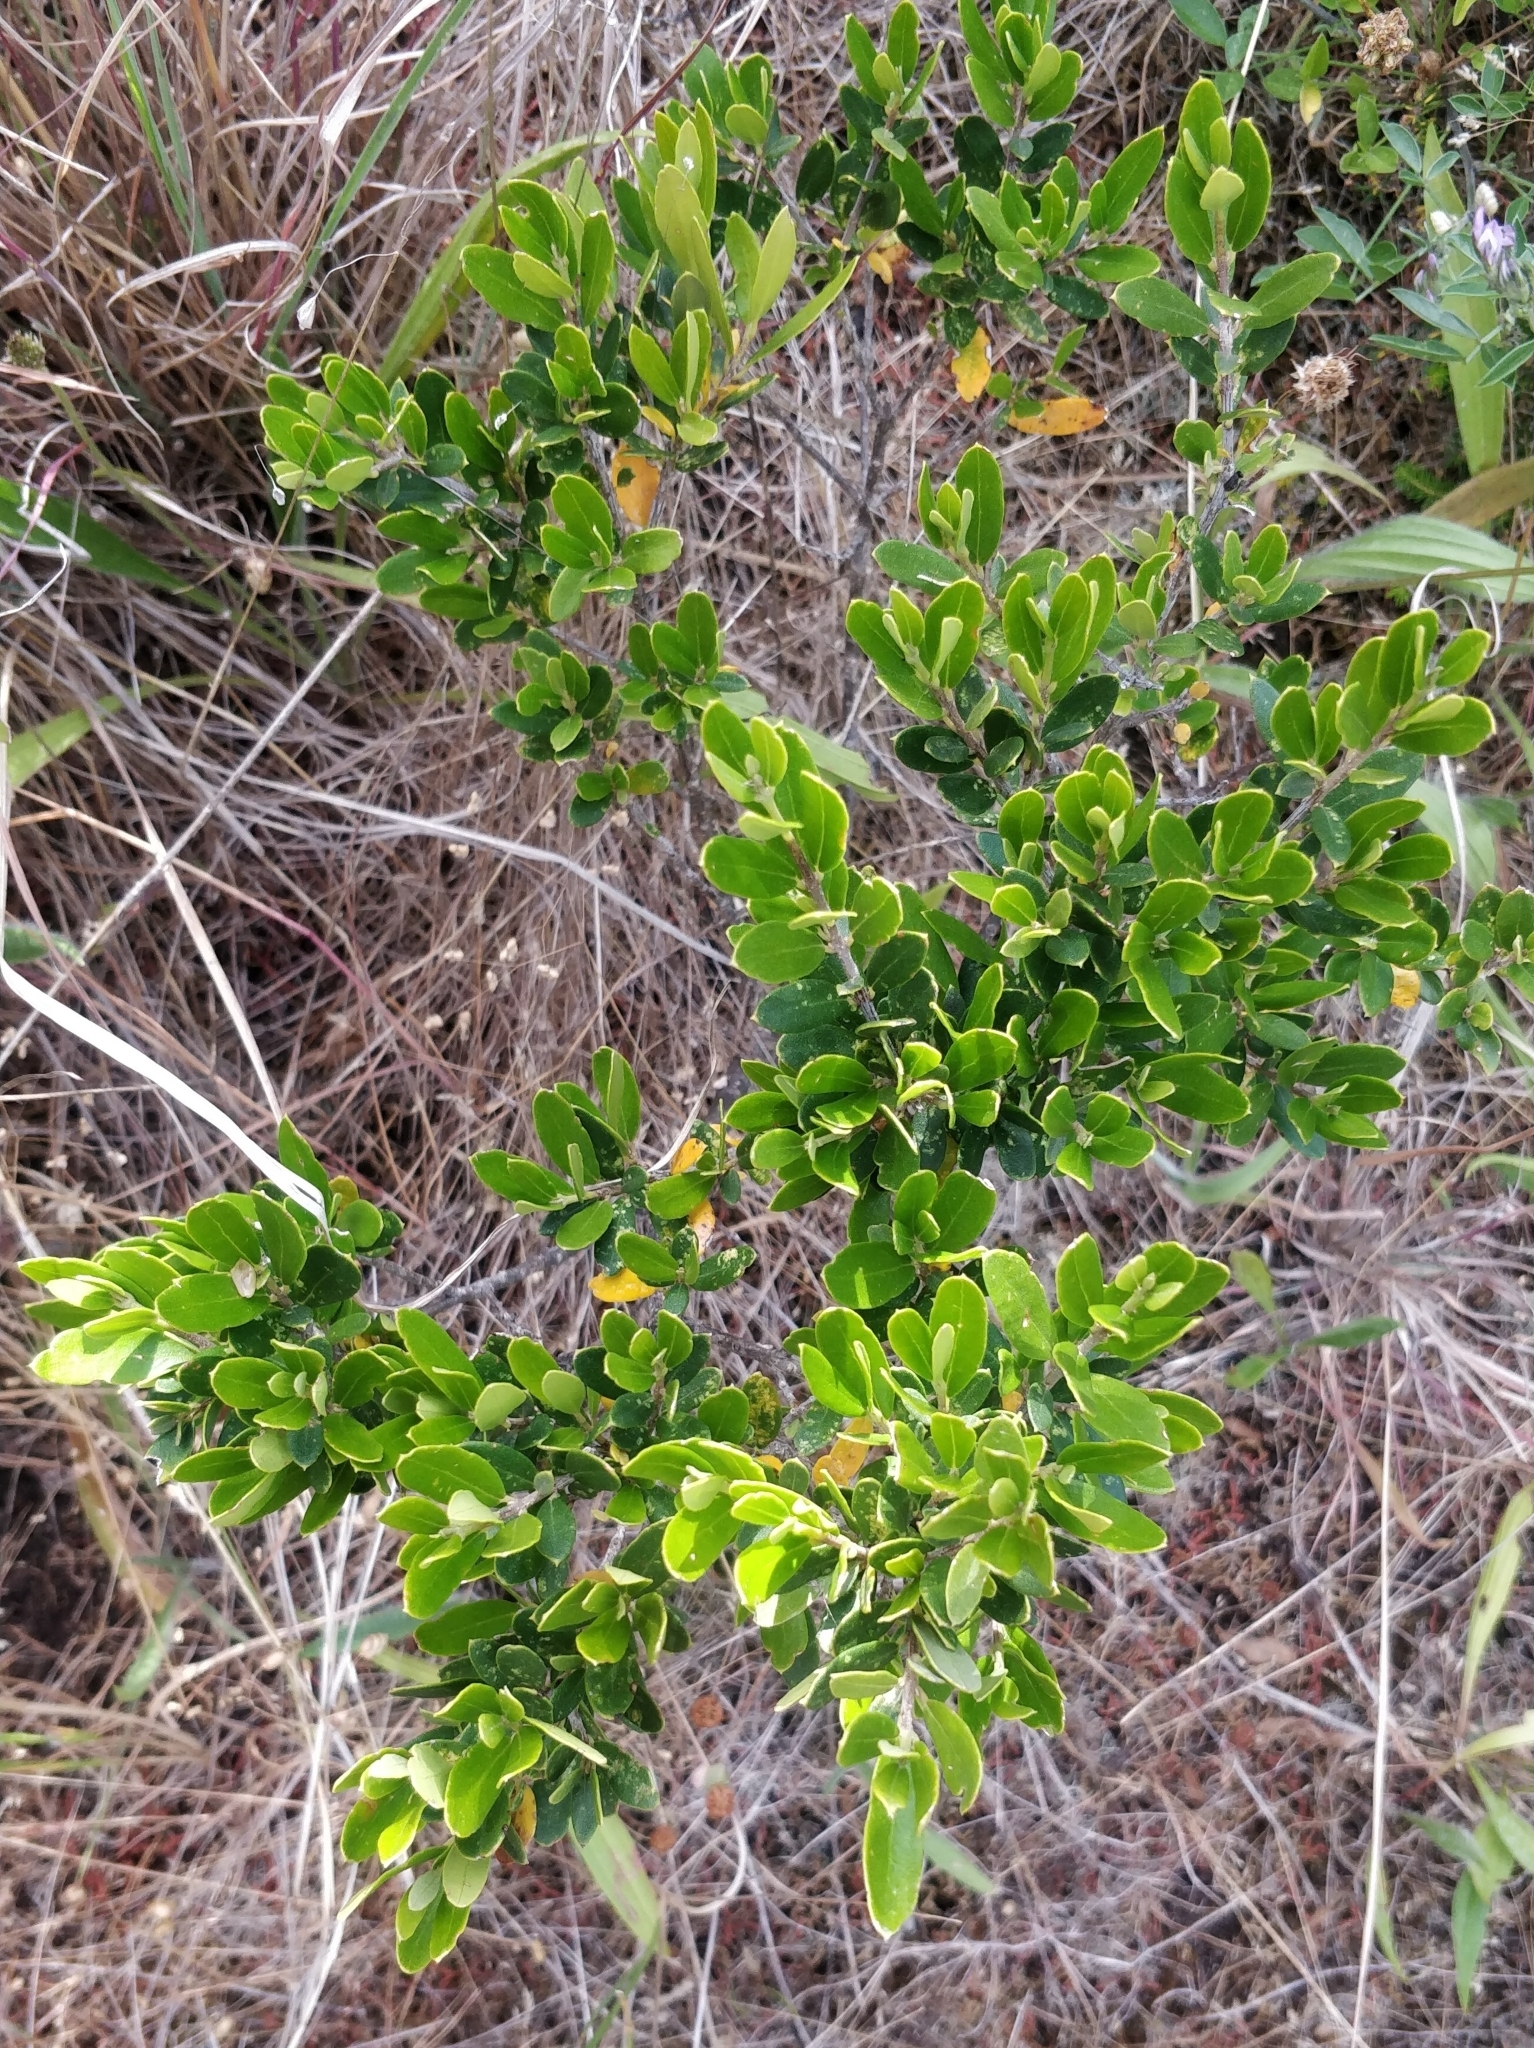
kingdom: Plantae
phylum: Tracheophyta
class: Magnoliopsida
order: Lamiales
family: Oleaceae
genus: Olea
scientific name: Olea europaea
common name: Olive
